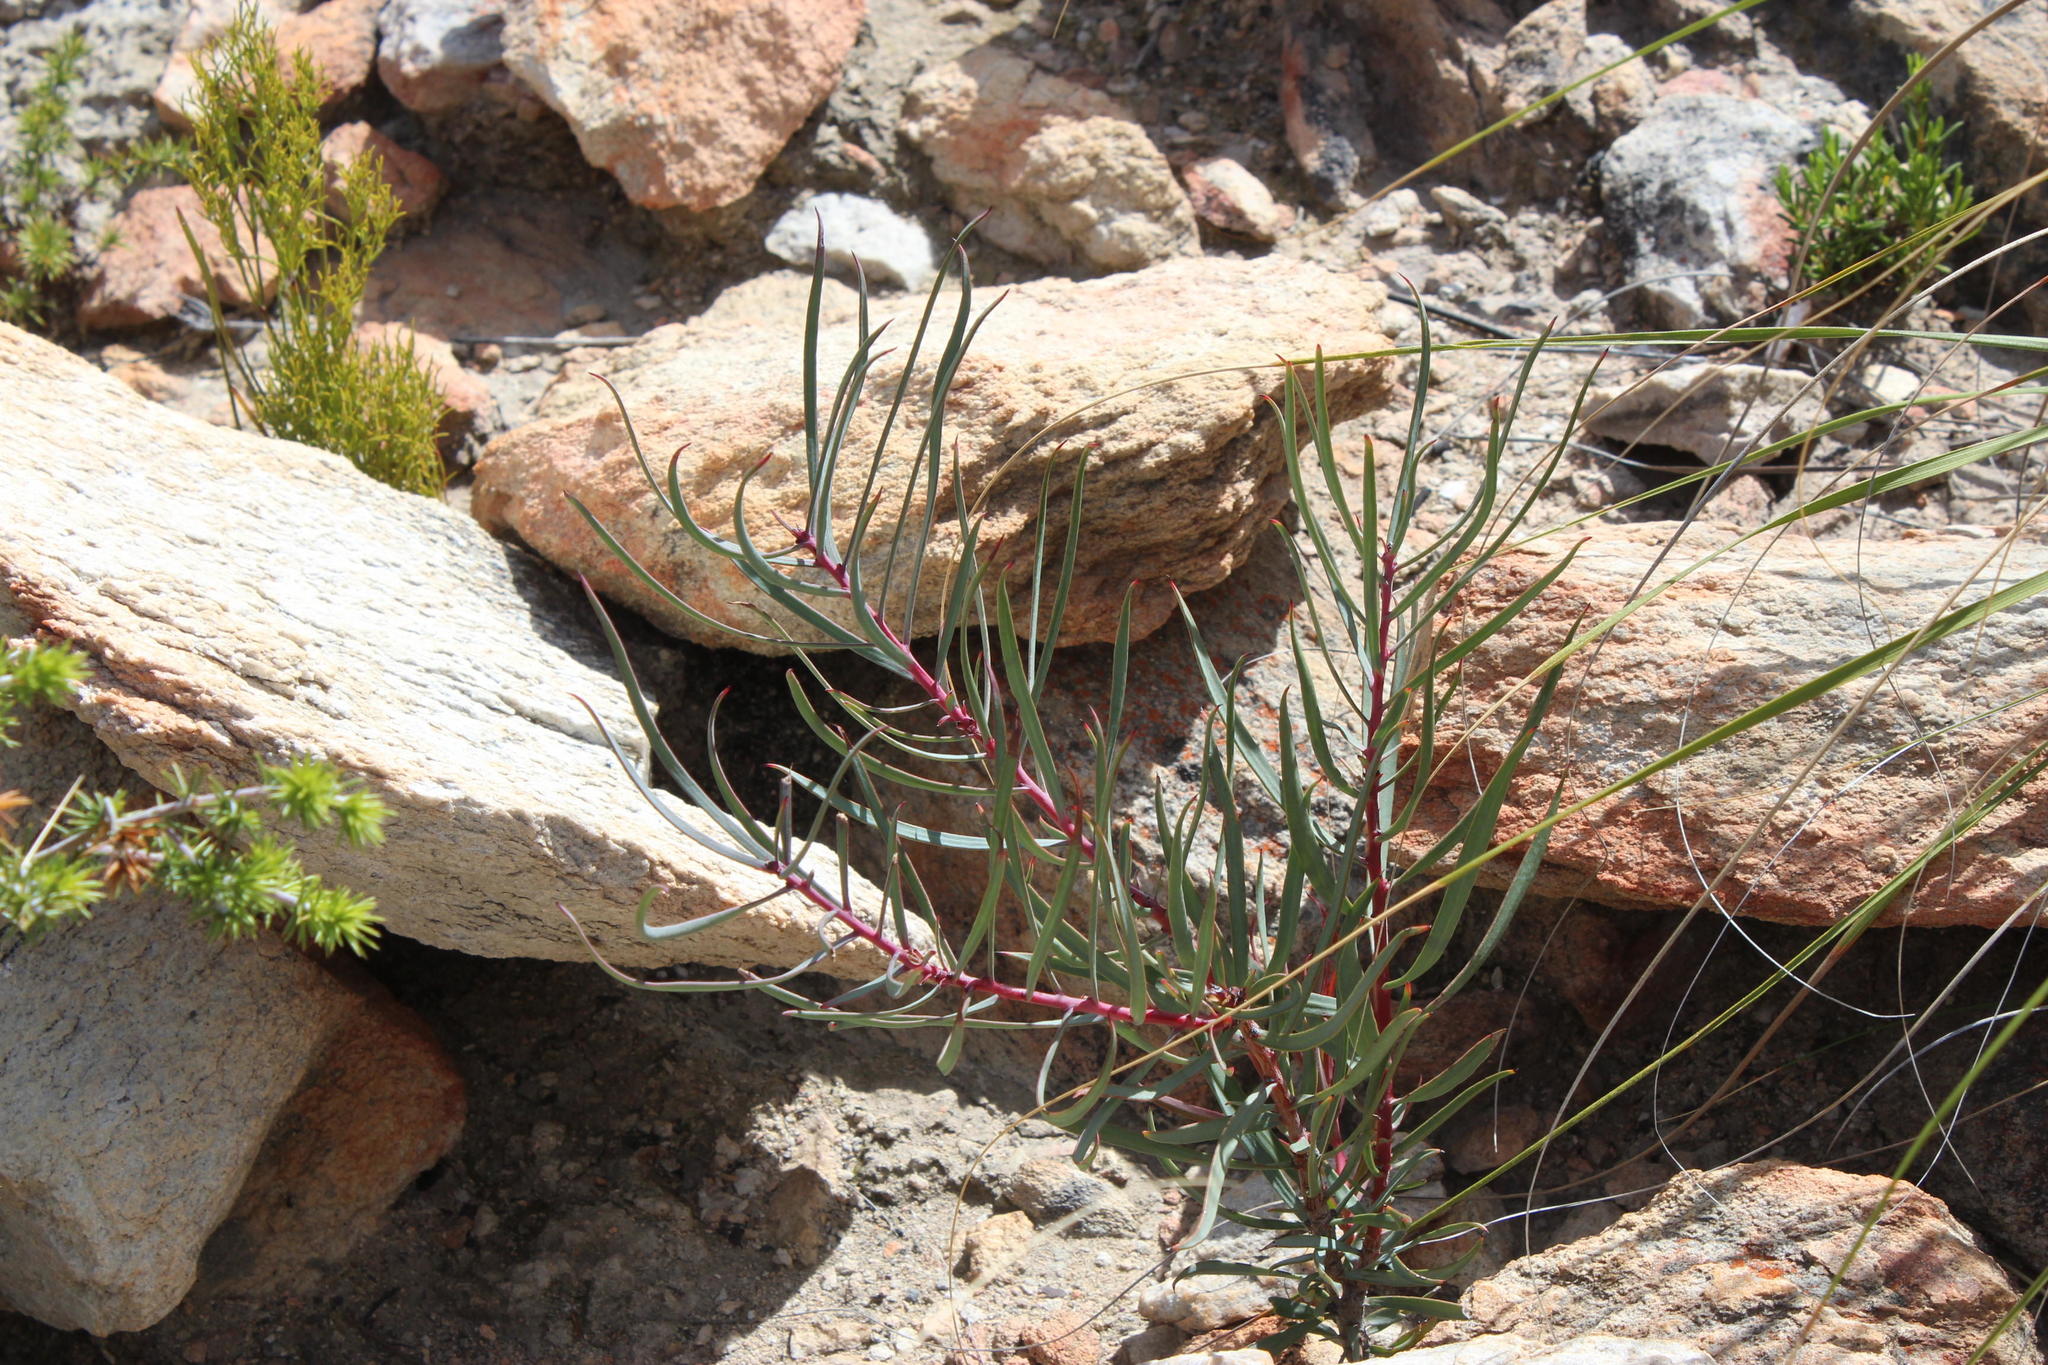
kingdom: Plantae
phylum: Tracheophyta
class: Magnoliopsida
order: Proteales
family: Proteaceae
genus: Protea
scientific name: Protea humiflora
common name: Patent-leaf sugarbush
